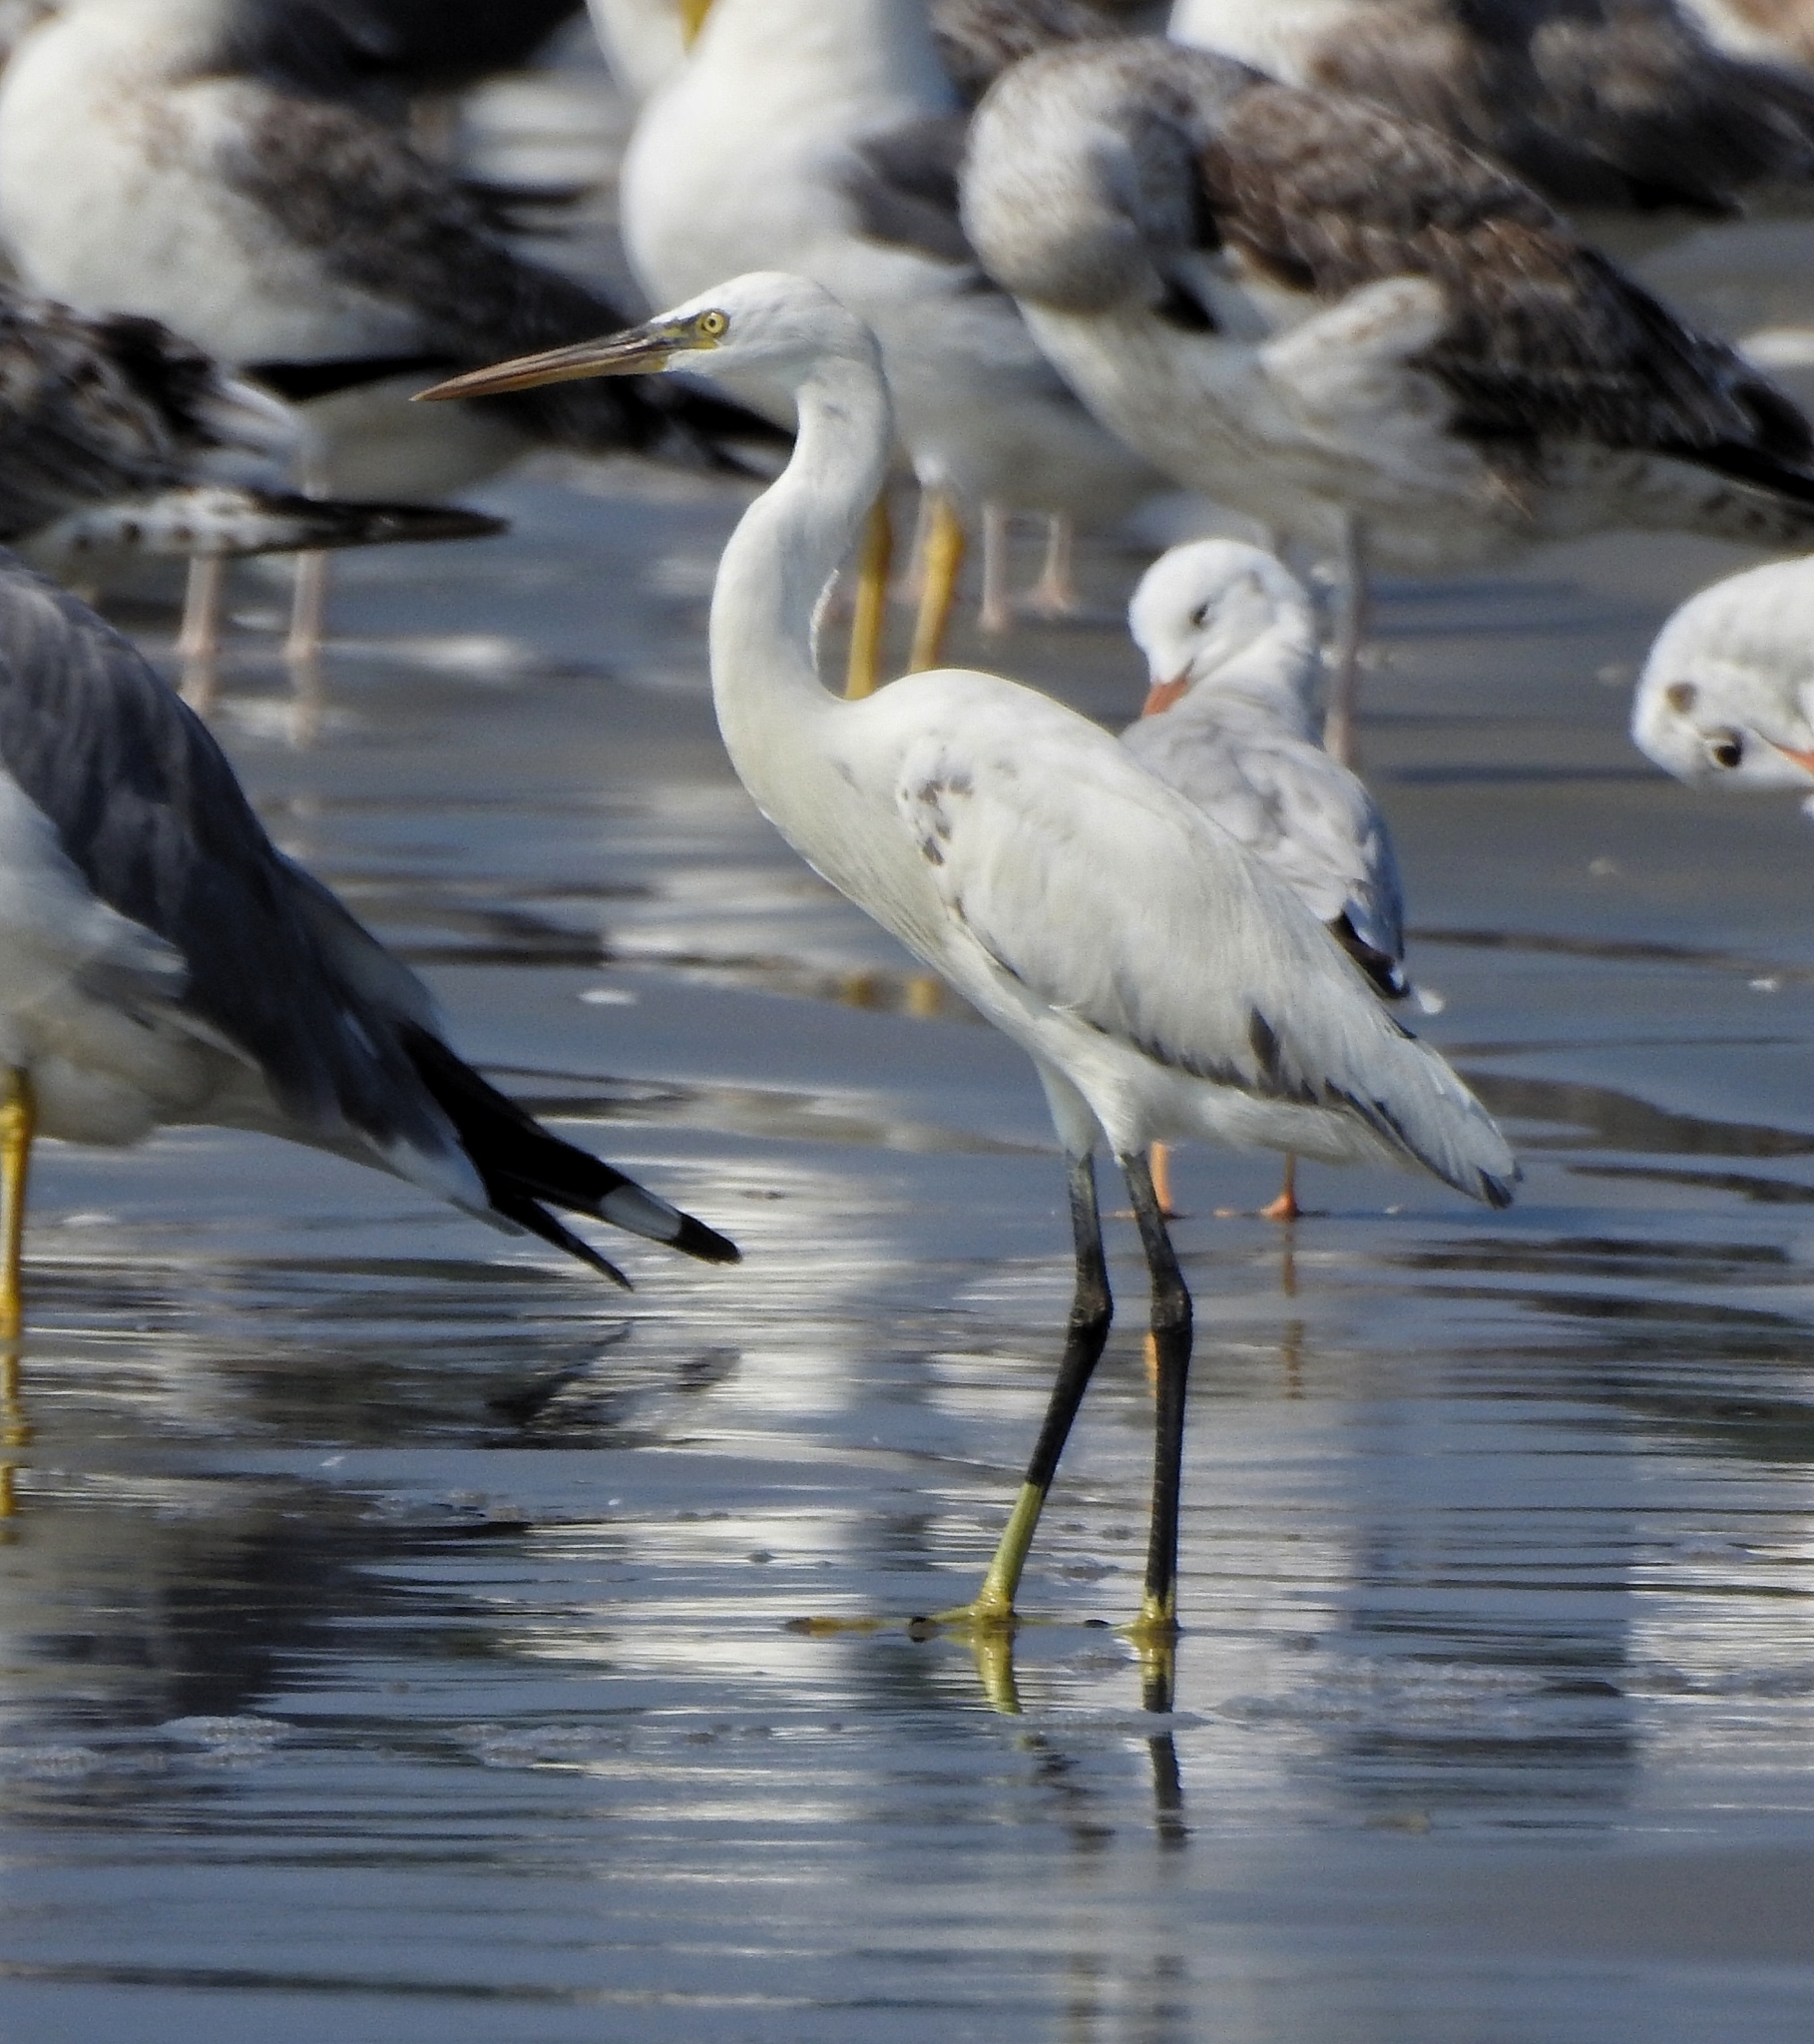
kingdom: Animalia
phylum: Chordata
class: Aves
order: Pelecaniformes
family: Ardeidae
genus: Egretta
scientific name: Egretta gularis
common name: Western reef-heron
